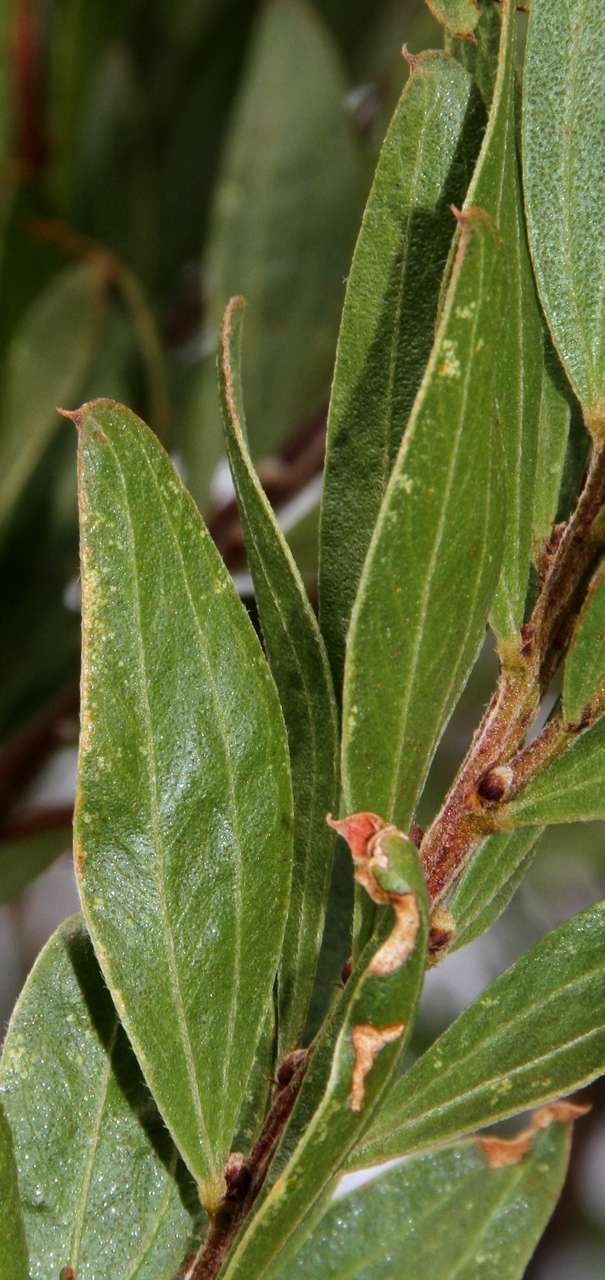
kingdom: Plantae
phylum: Tracheophyta
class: Magnoliopsida
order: Fabales
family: Fabaceae
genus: Acacia
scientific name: Acacia rostriformis
